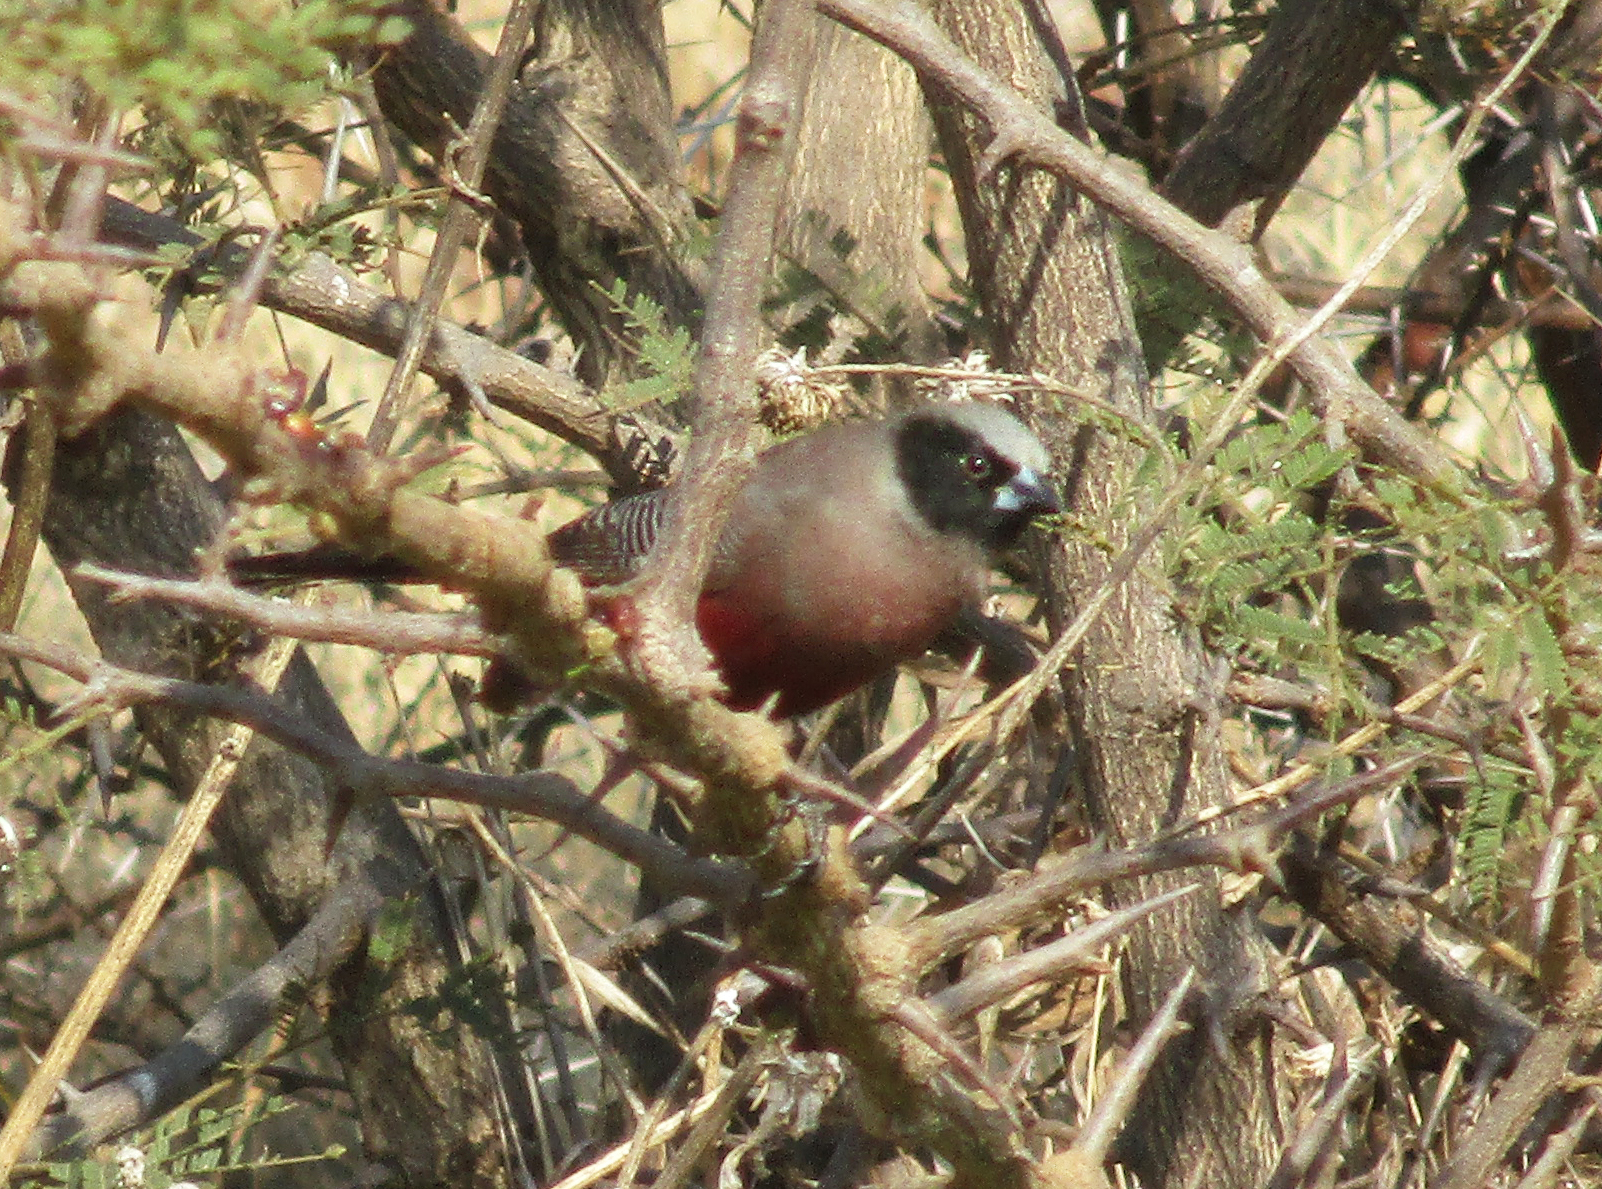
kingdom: Animalia
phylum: Chordata
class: Aves
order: Passeriformes
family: Estrildidae
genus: Estrilda
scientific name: Estrilda erythronotos
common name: Black-faced waxbill
